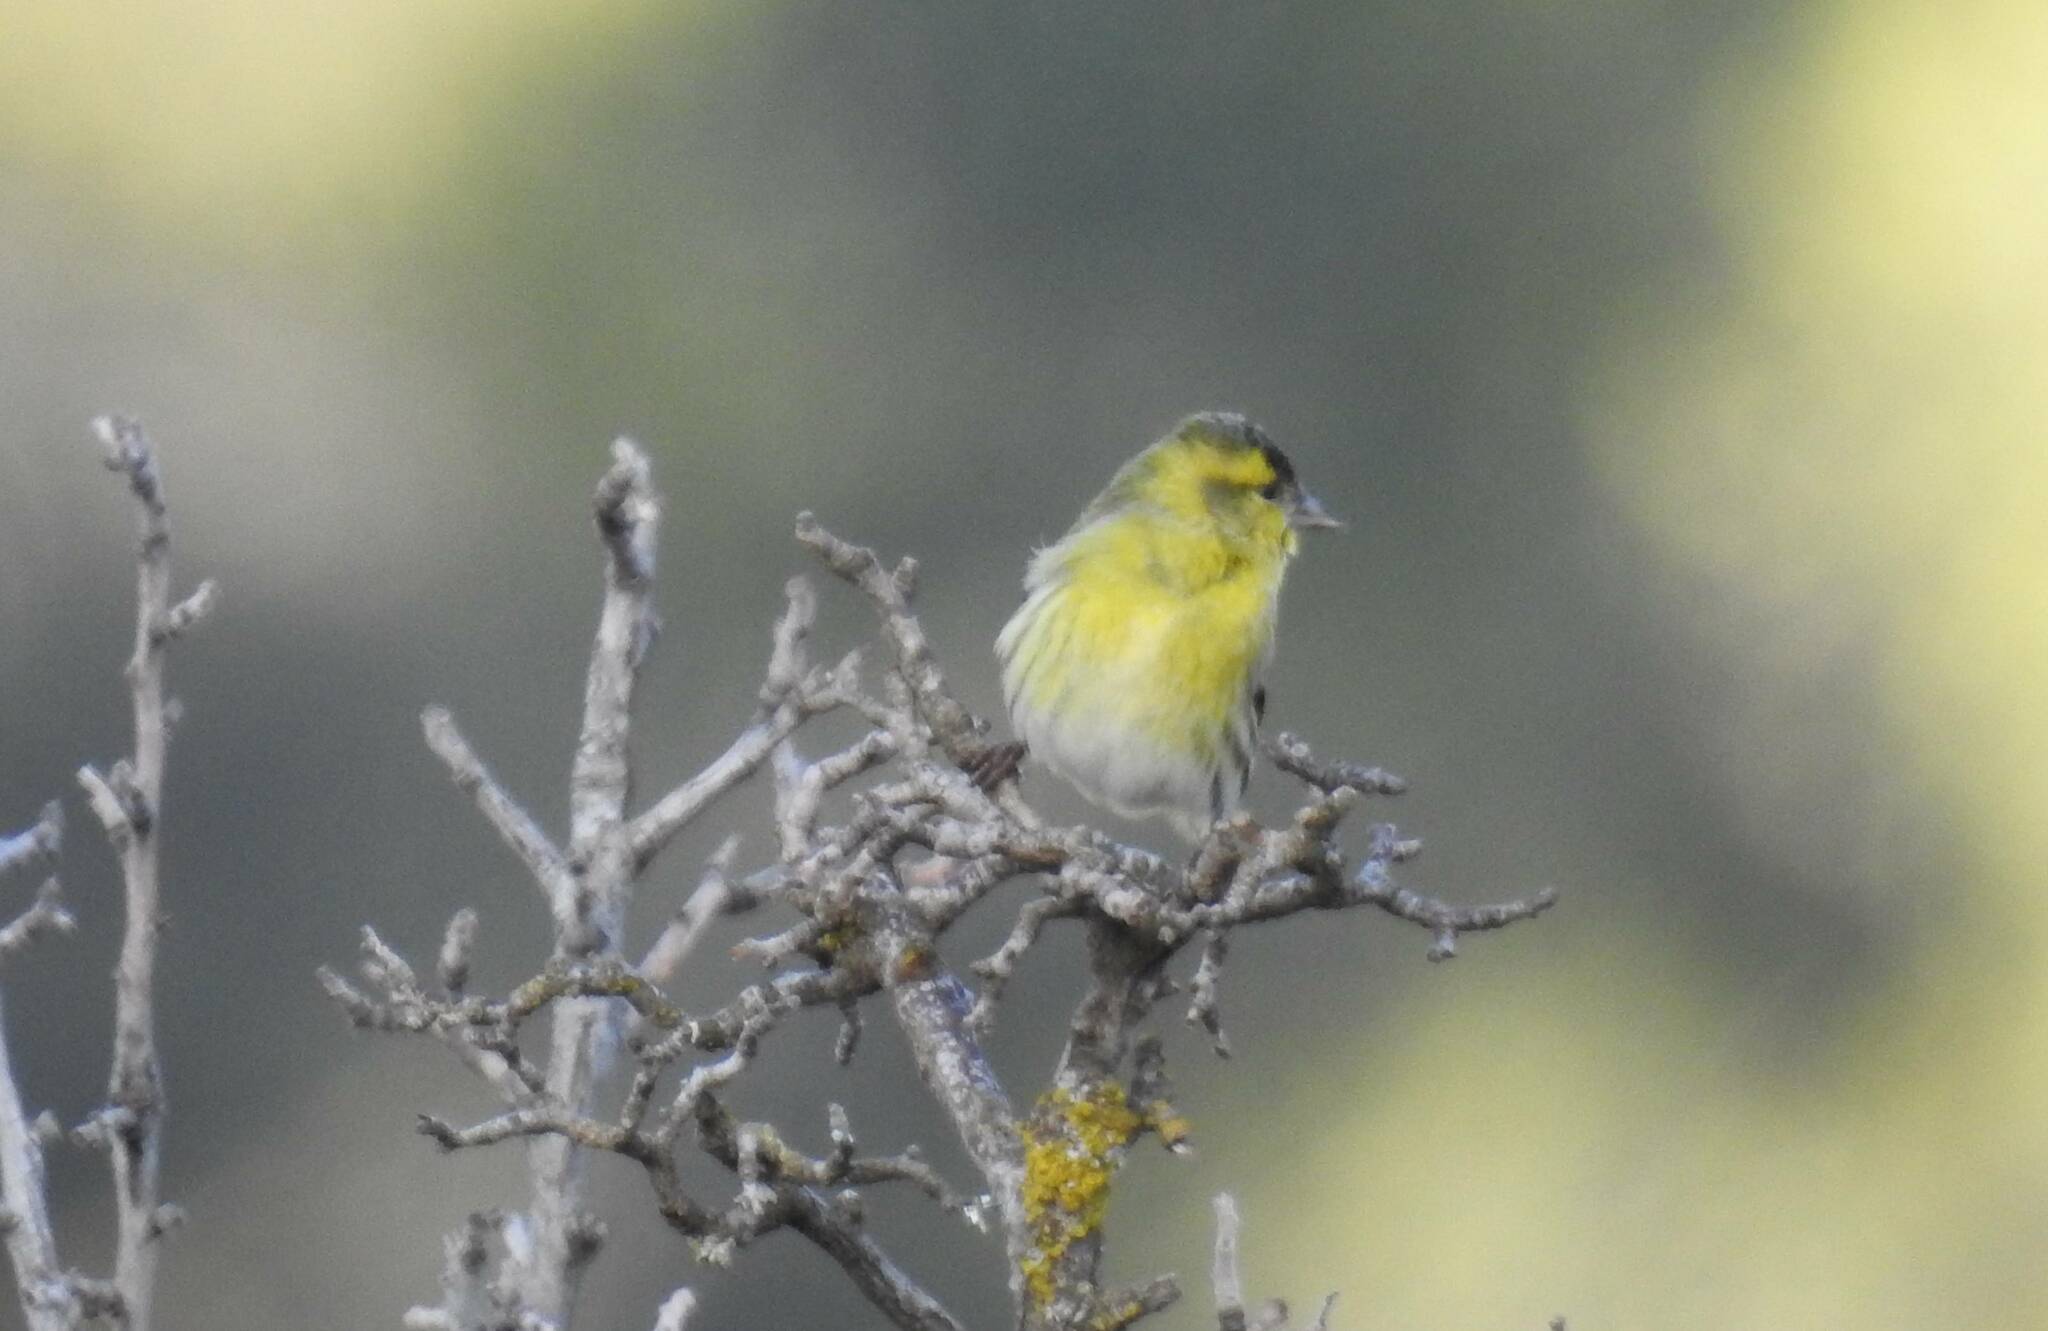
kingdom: Animalia
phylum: Chordata
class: Aves
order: Passeriformes
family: Fringillidae
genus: Spinus
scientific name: Spinus spinus
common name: Eurasian siskin
